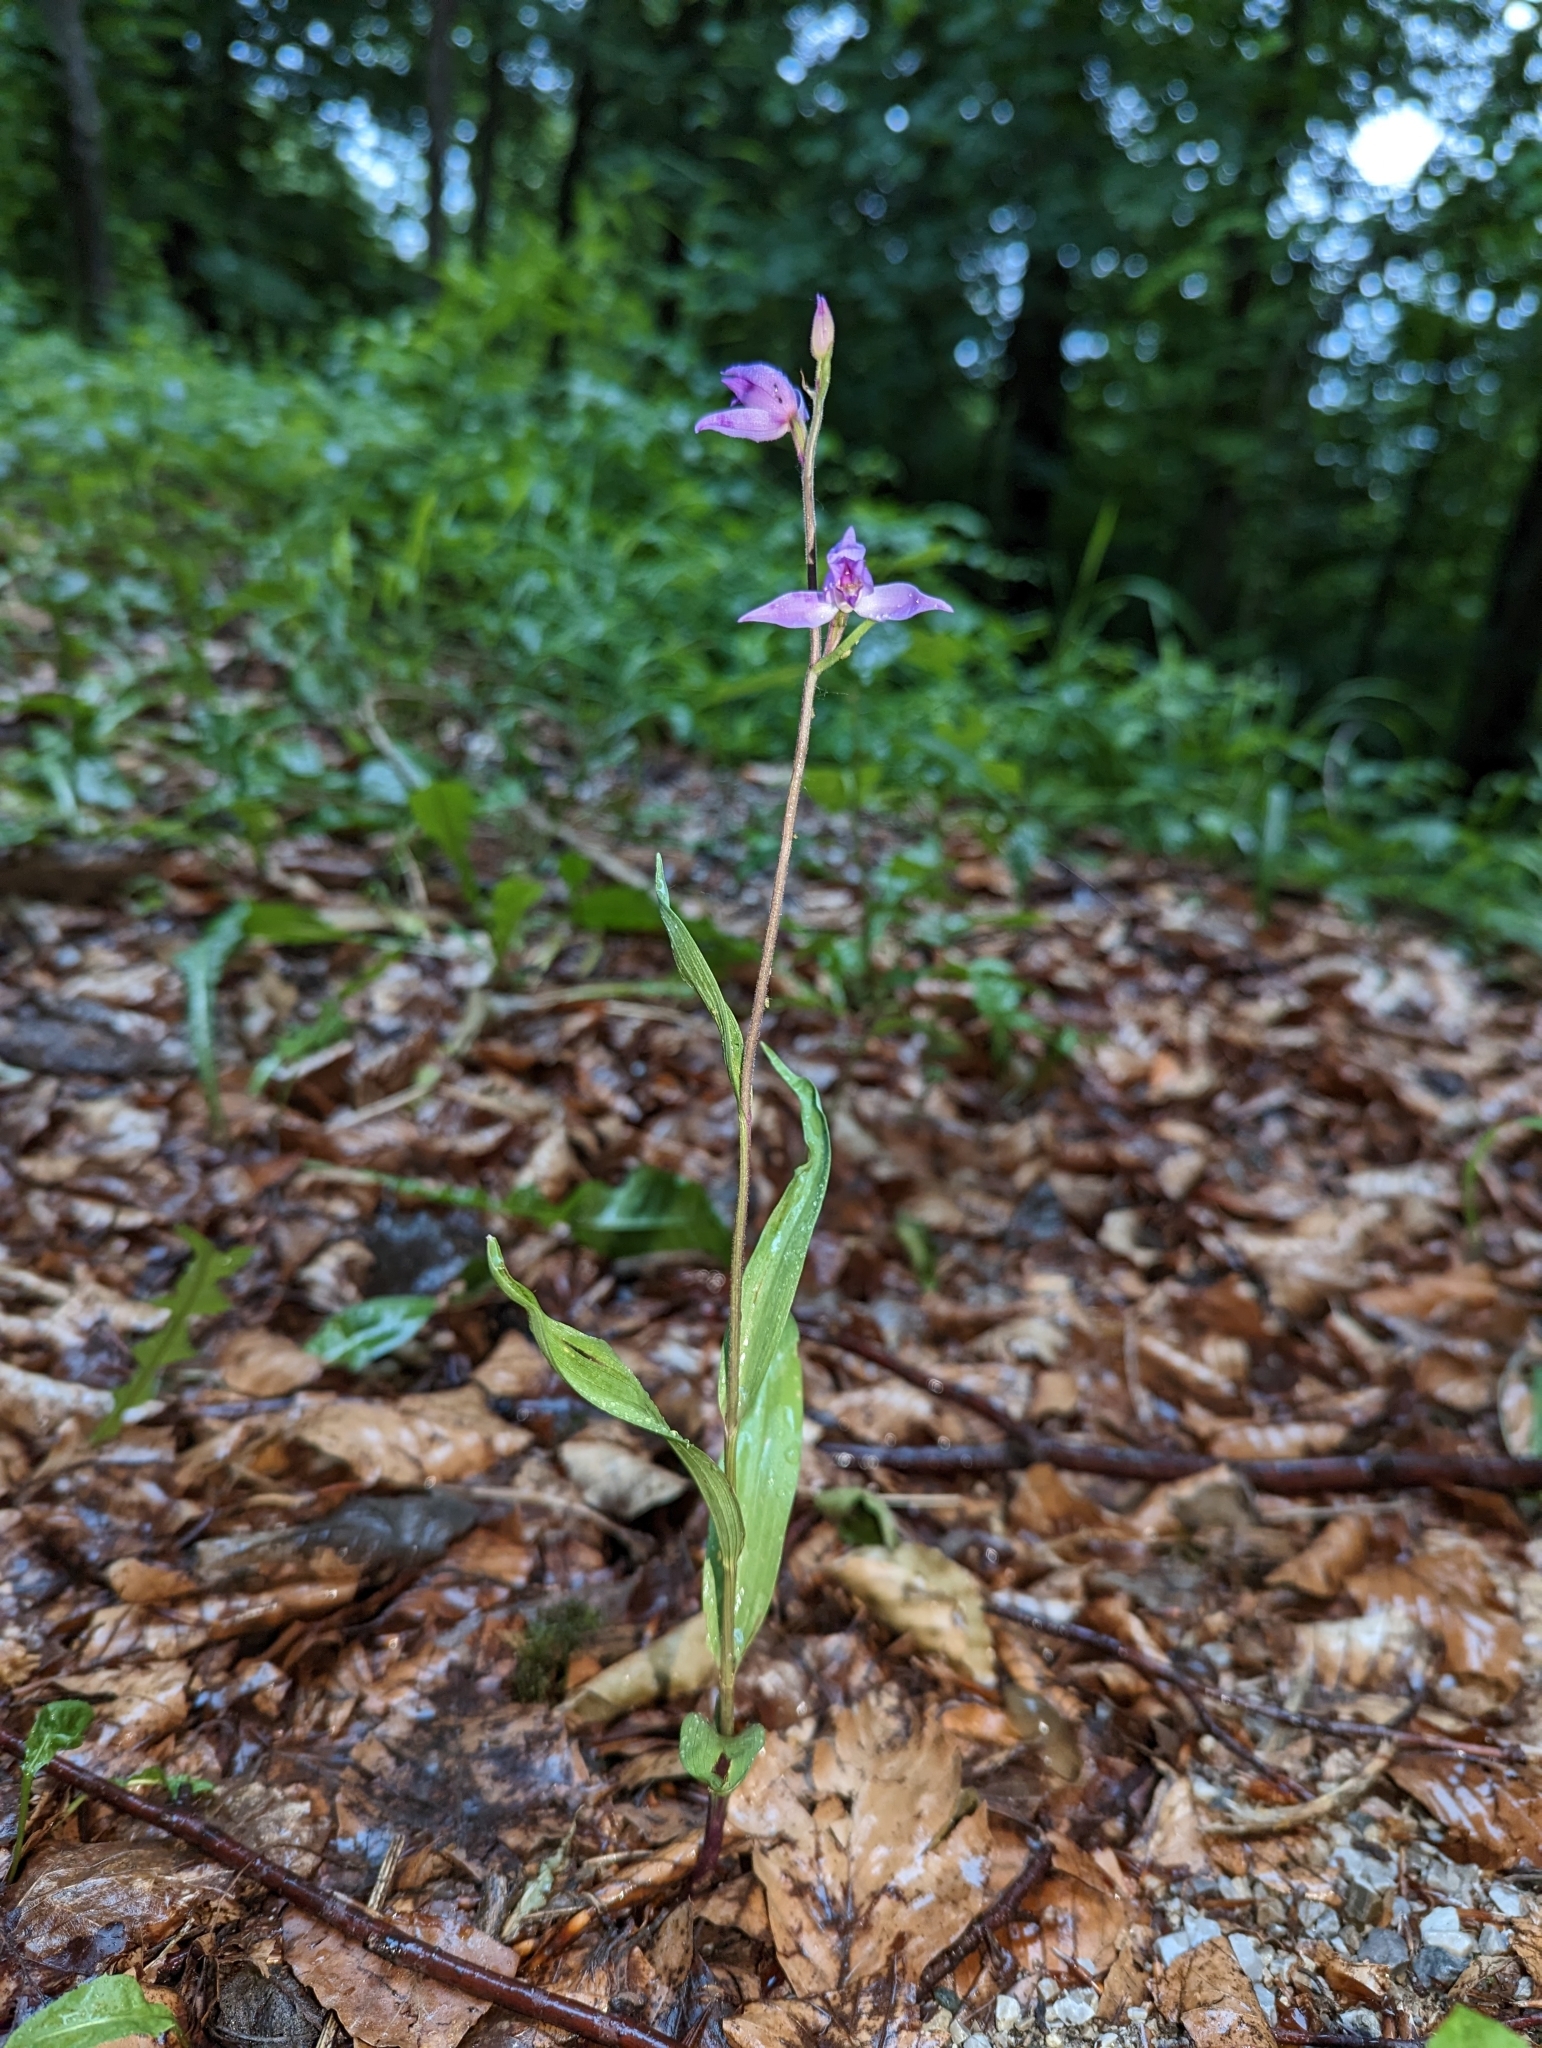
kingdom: Plantae
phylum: Tracheophyta
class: Liliopsida
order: Asparagales
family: Orchidaceae
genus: Cephalanthera
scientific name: Cephalanthera rubra
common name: Red helleborine
